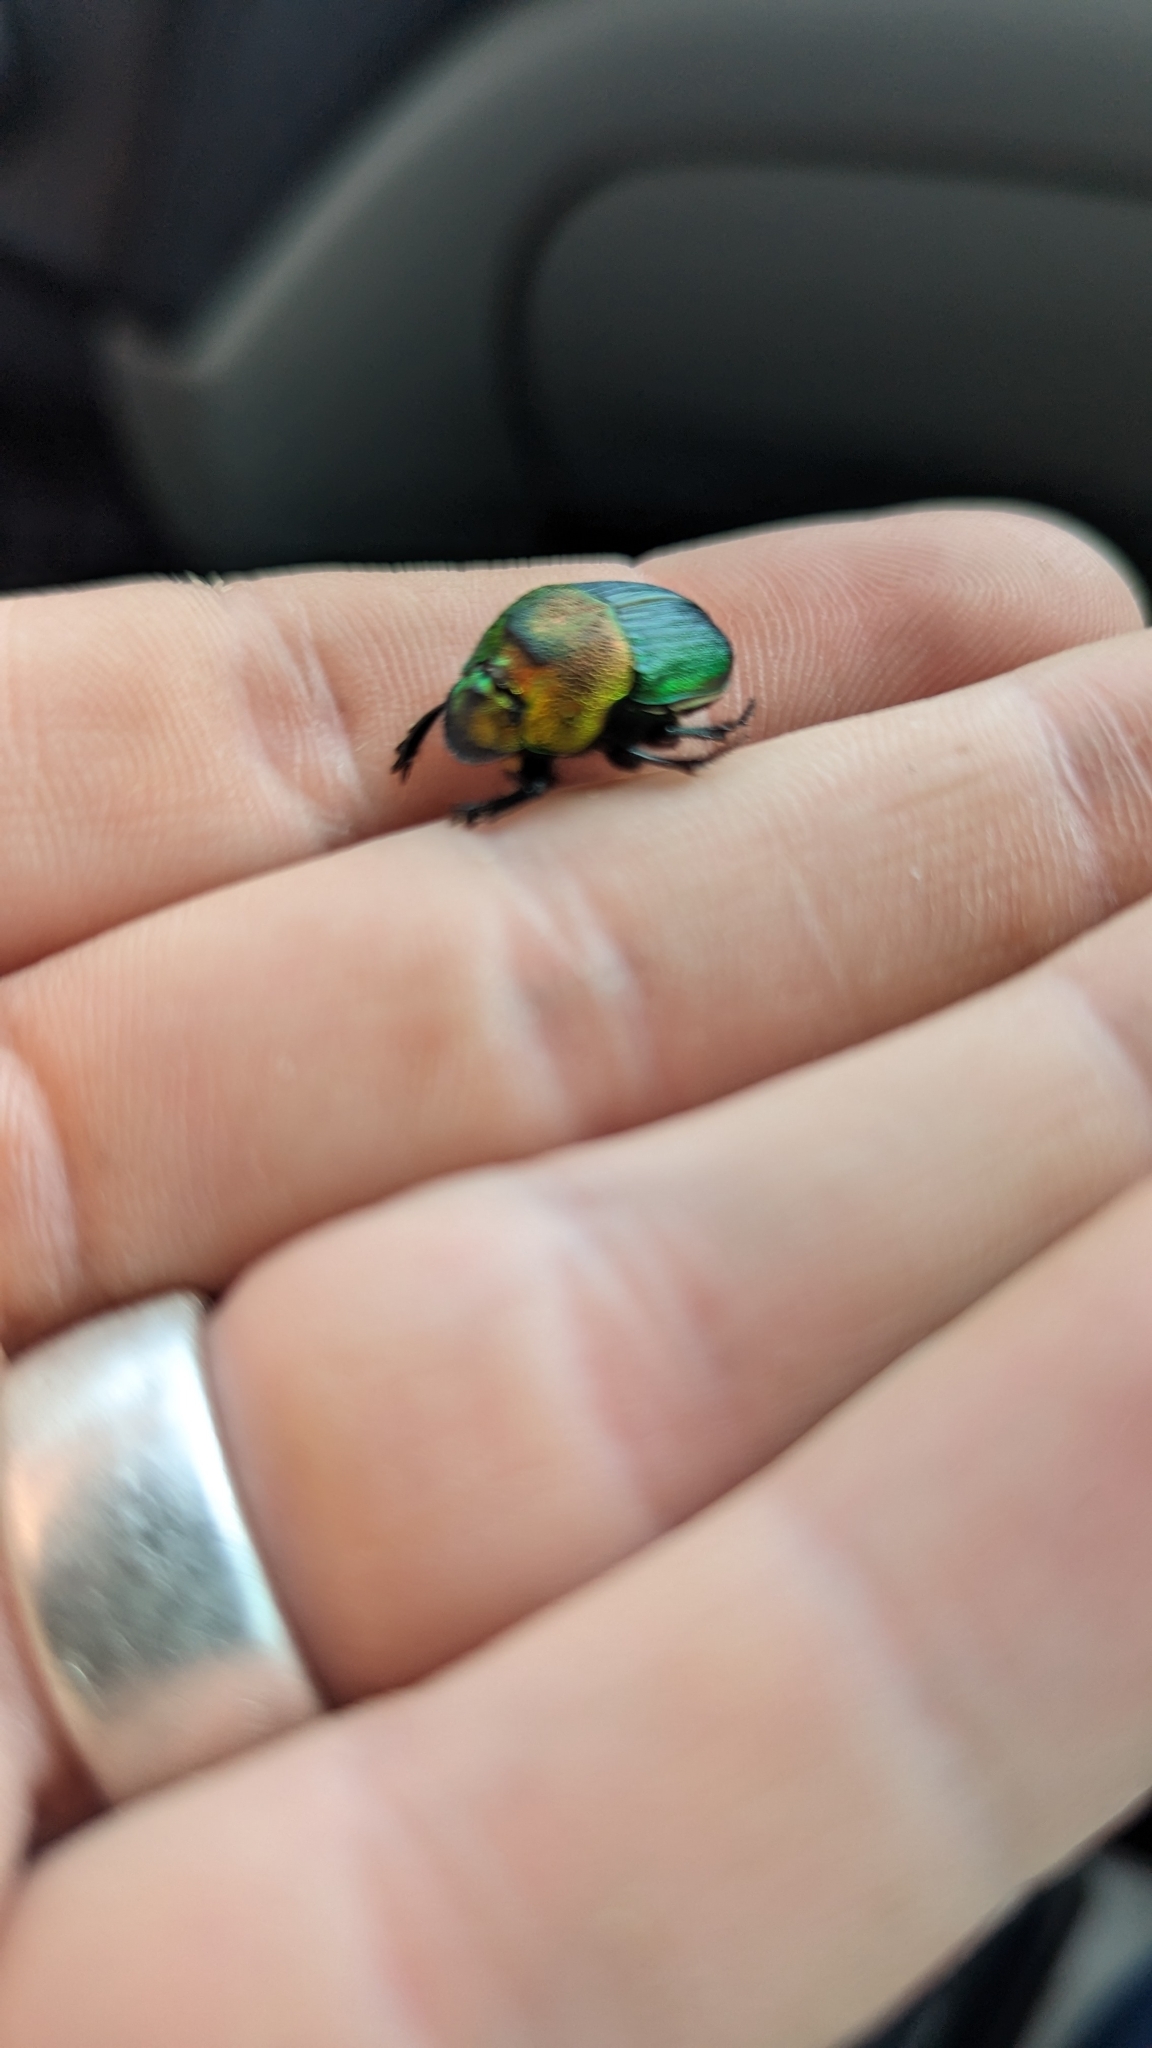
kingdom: Animalia
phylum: Arthropoda
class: Insecta
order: Coleoptera
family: Scarabaeidae
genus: Phanaeus
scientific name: Phanaeus vindex
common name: Rainbow scarab
